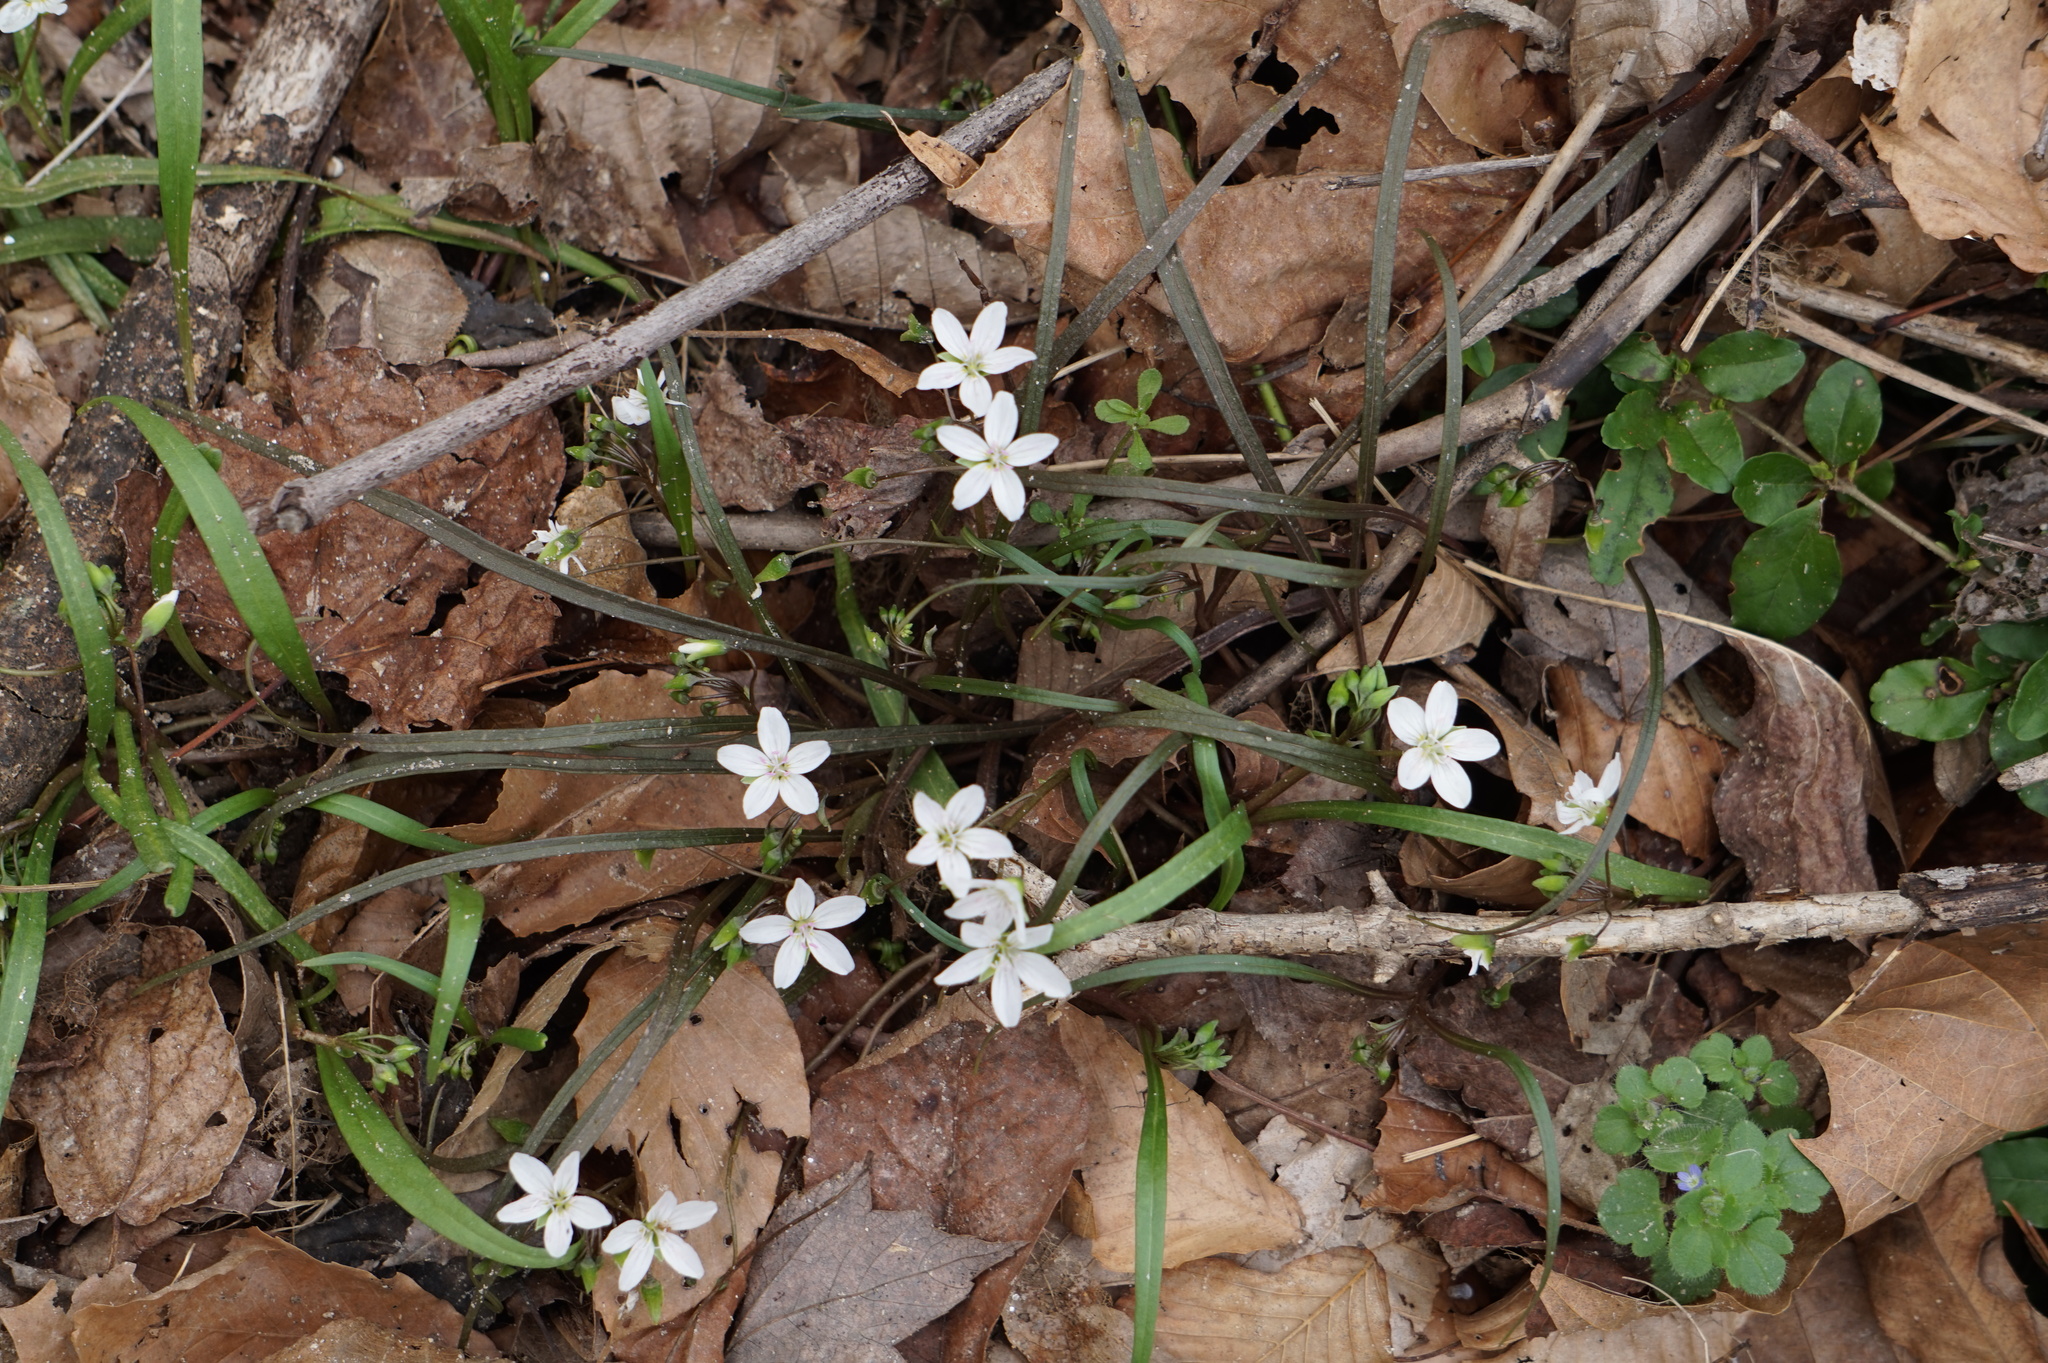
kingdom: Plantae
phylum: Tracheophyta
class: Magnoliopsida
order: Caryophyllales
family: Montiaceae
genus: Claytonia
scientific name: Claytonia virginica
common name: Virginia springbeauty
